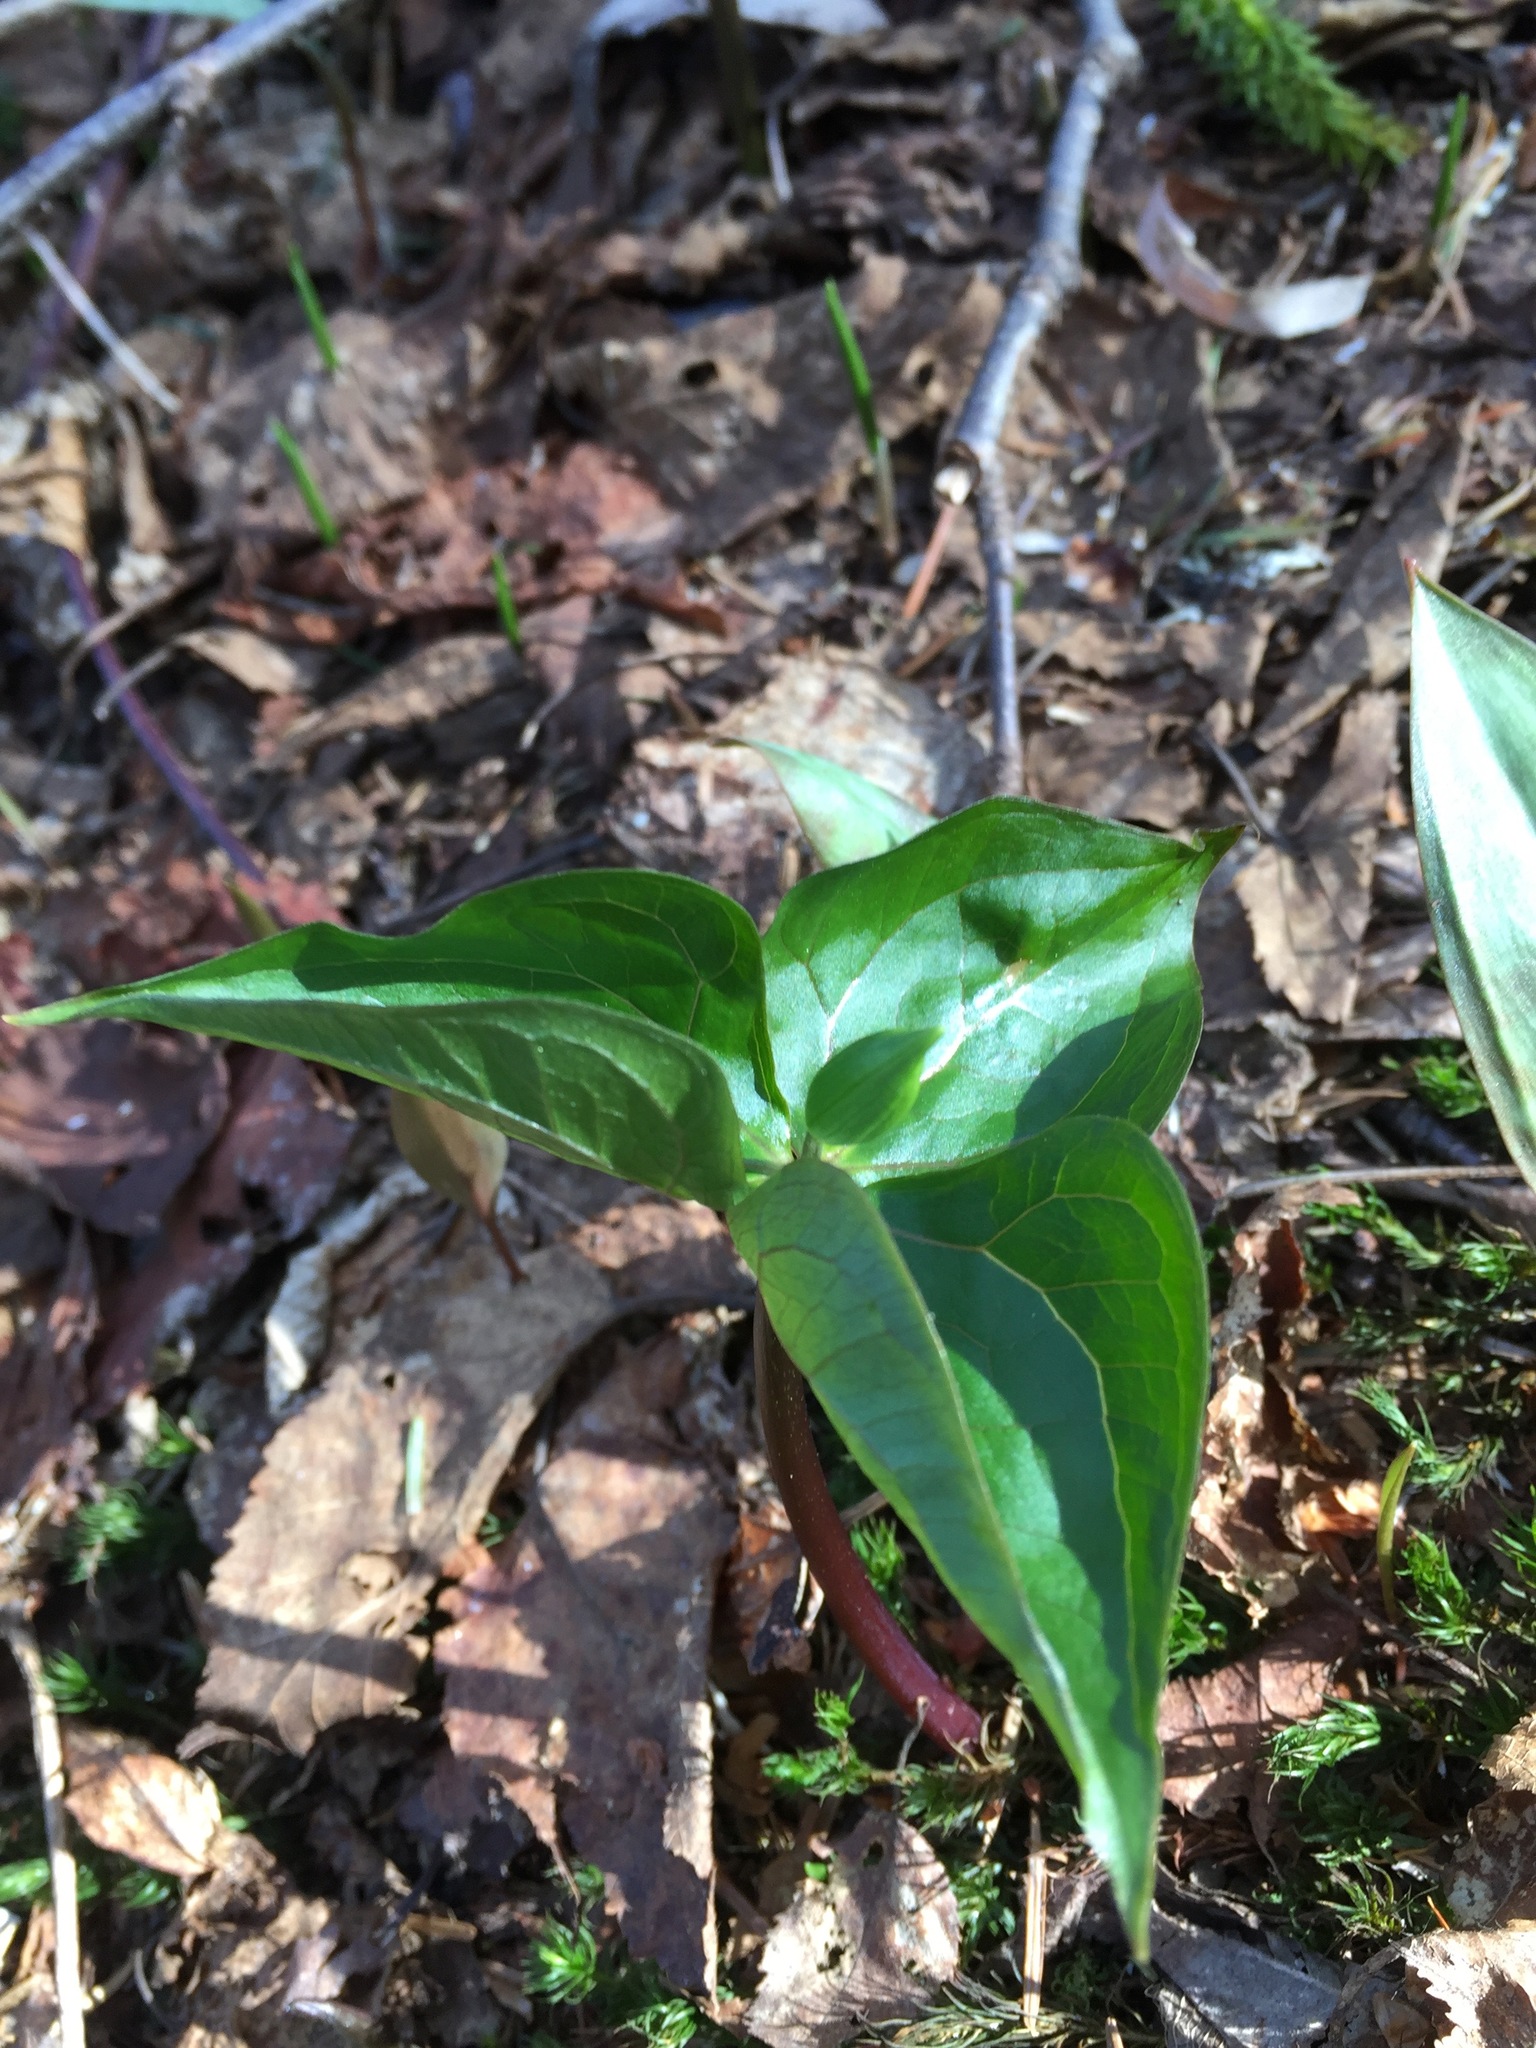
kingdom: Plantae
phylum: Tracheophyta
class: Liliopsida
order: Liliales
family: Melanthiaceae
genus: Trillium
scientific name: Trillium erectum
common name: Purple trillium
